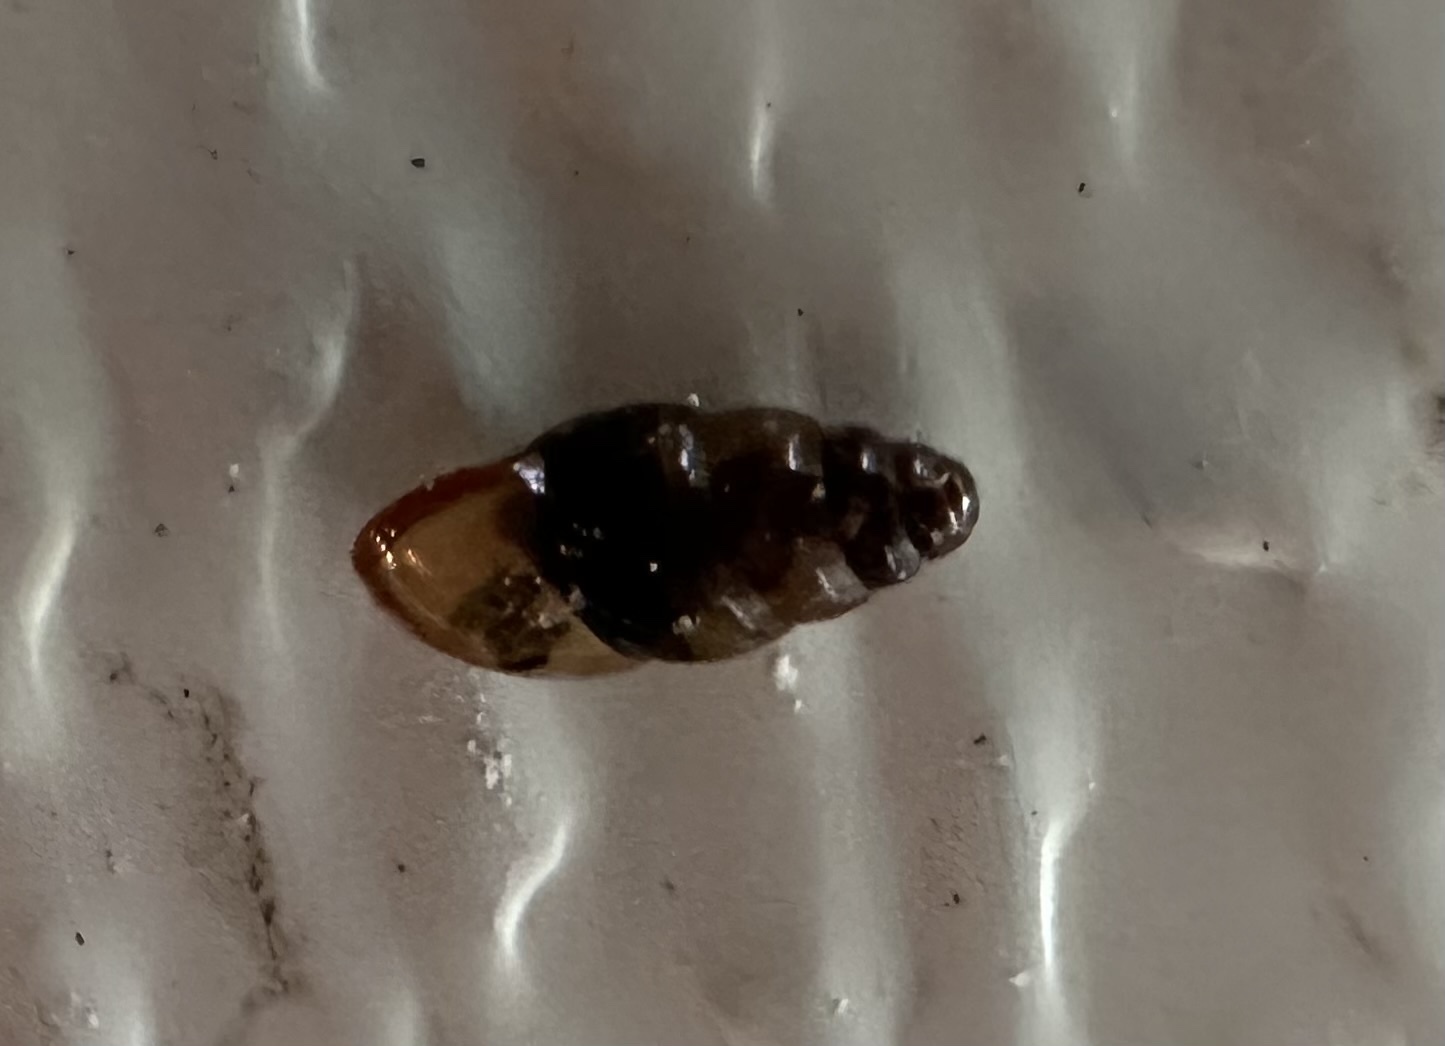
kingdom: Animalia
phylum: Mollusca
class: Gastropoda
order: Stylommatophora
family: Cochlicopidae
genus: Cochlicopa
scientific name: Cochlicopa lubrica
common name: Glossy pillar snail
